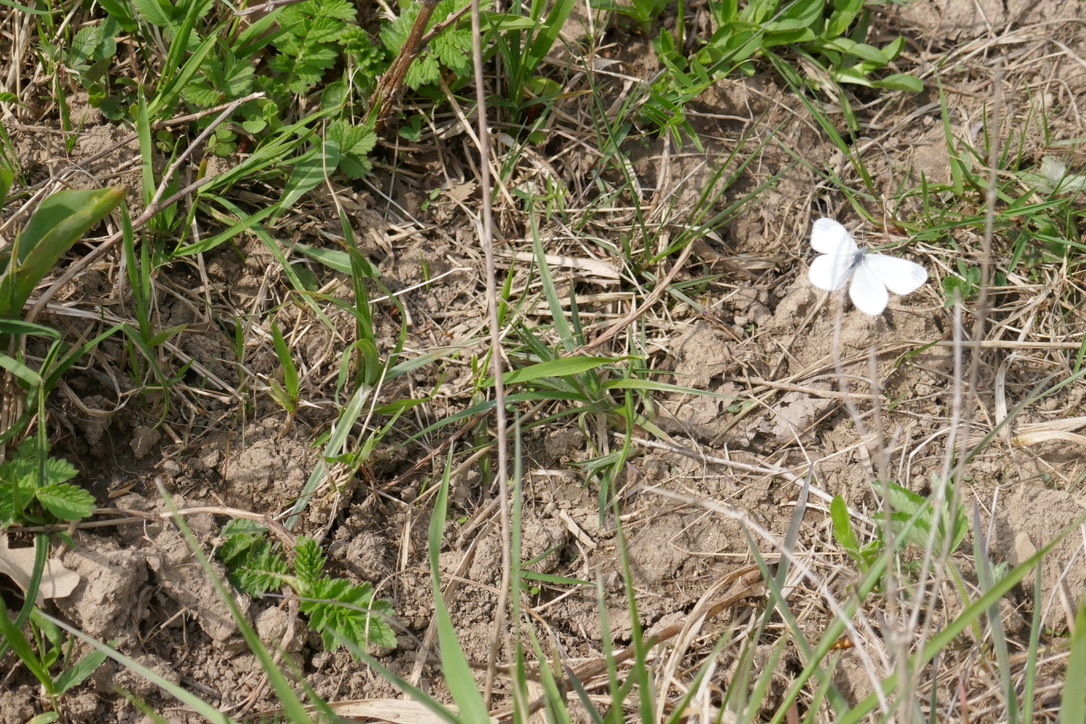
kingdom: Animalia
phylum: Arthropoda
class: Insecta
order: Lepidoptera
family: Pieridae
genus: Leptidea
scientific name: Leptidea
